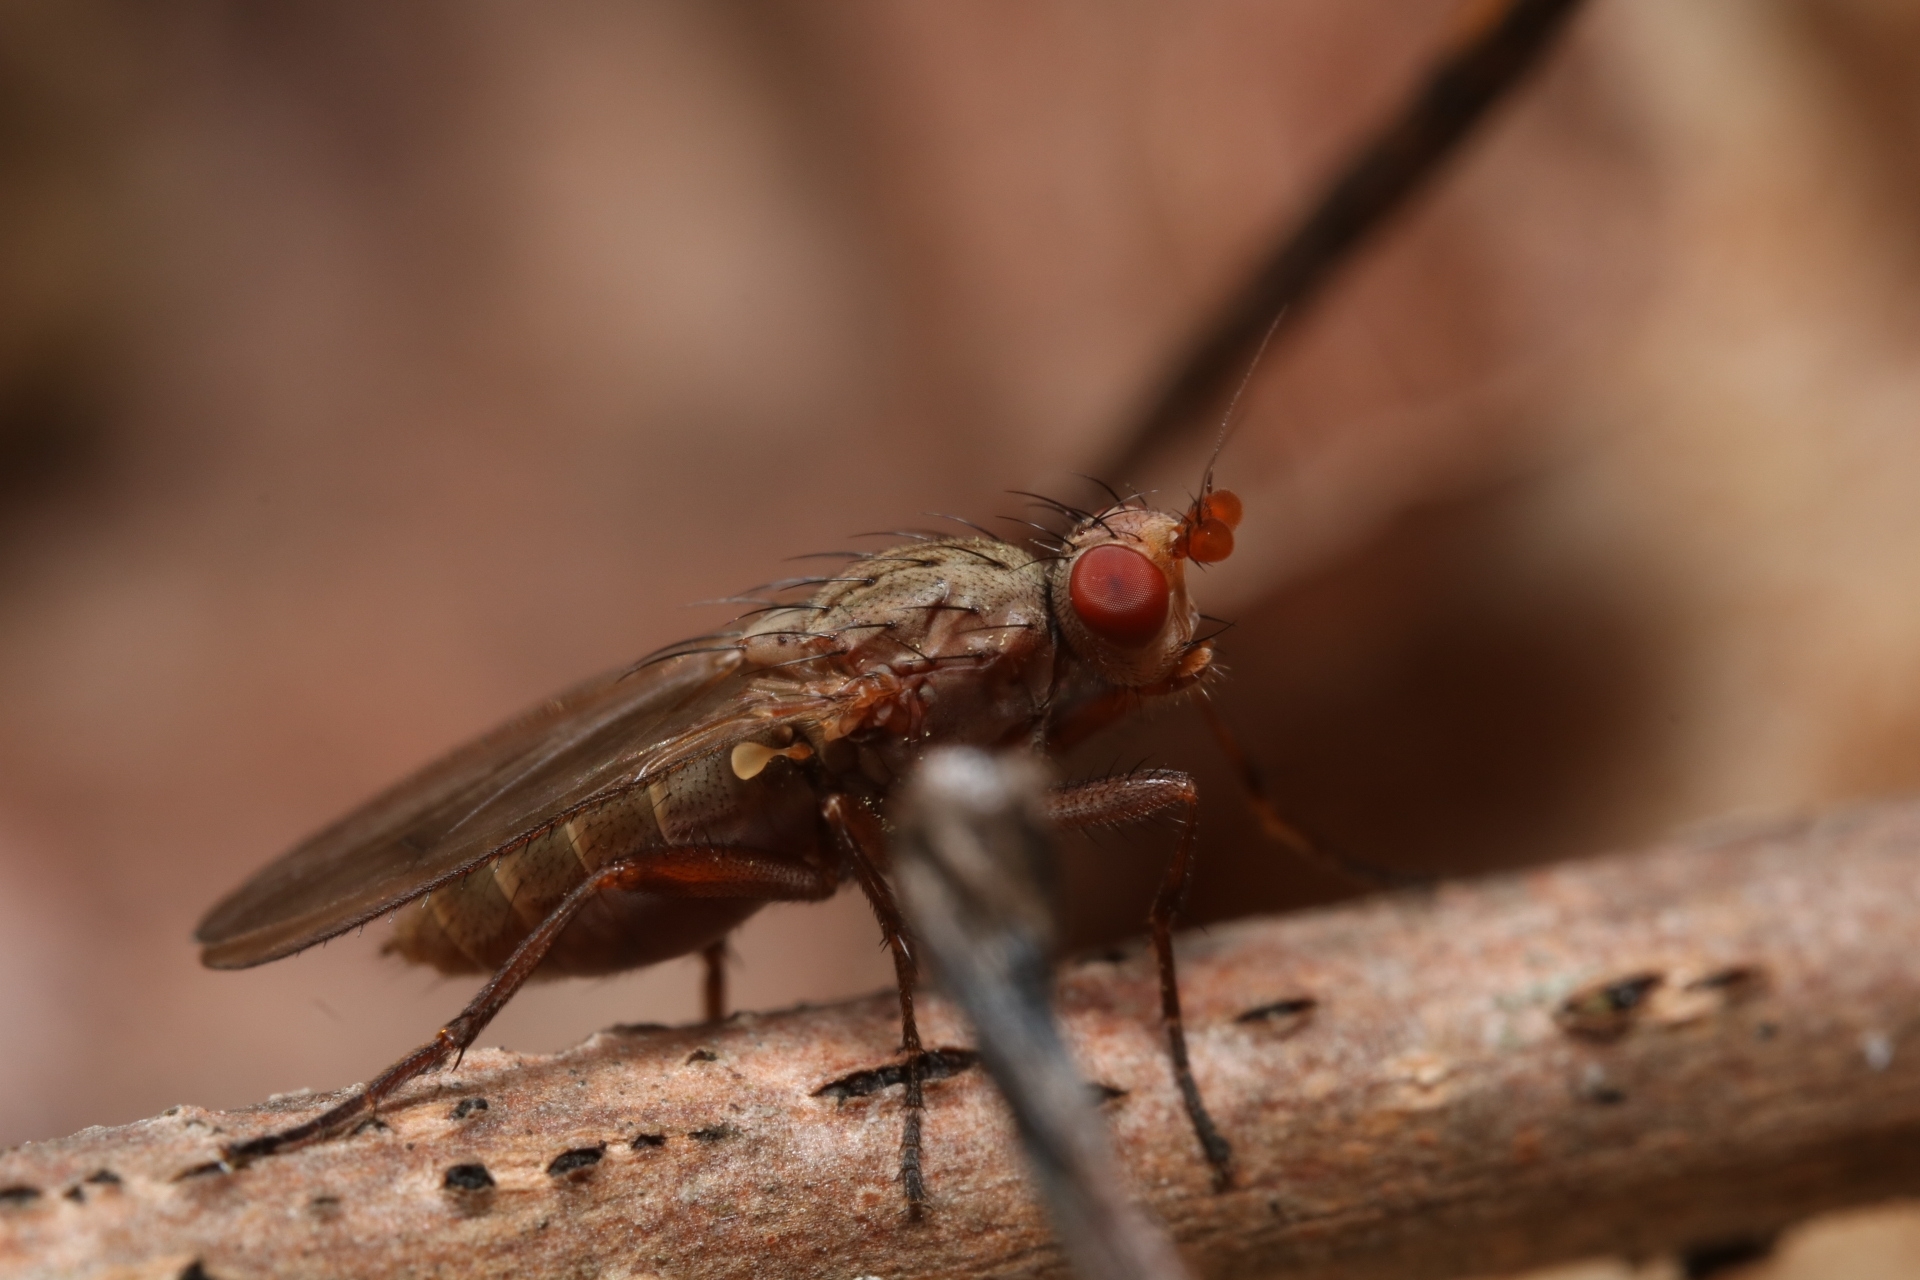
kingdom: Animalia
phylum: Arthropoda
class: Insecta
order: Diptera
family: Heleomyzidae
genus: Amoebaleria
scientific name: Amoebaleria defessa
